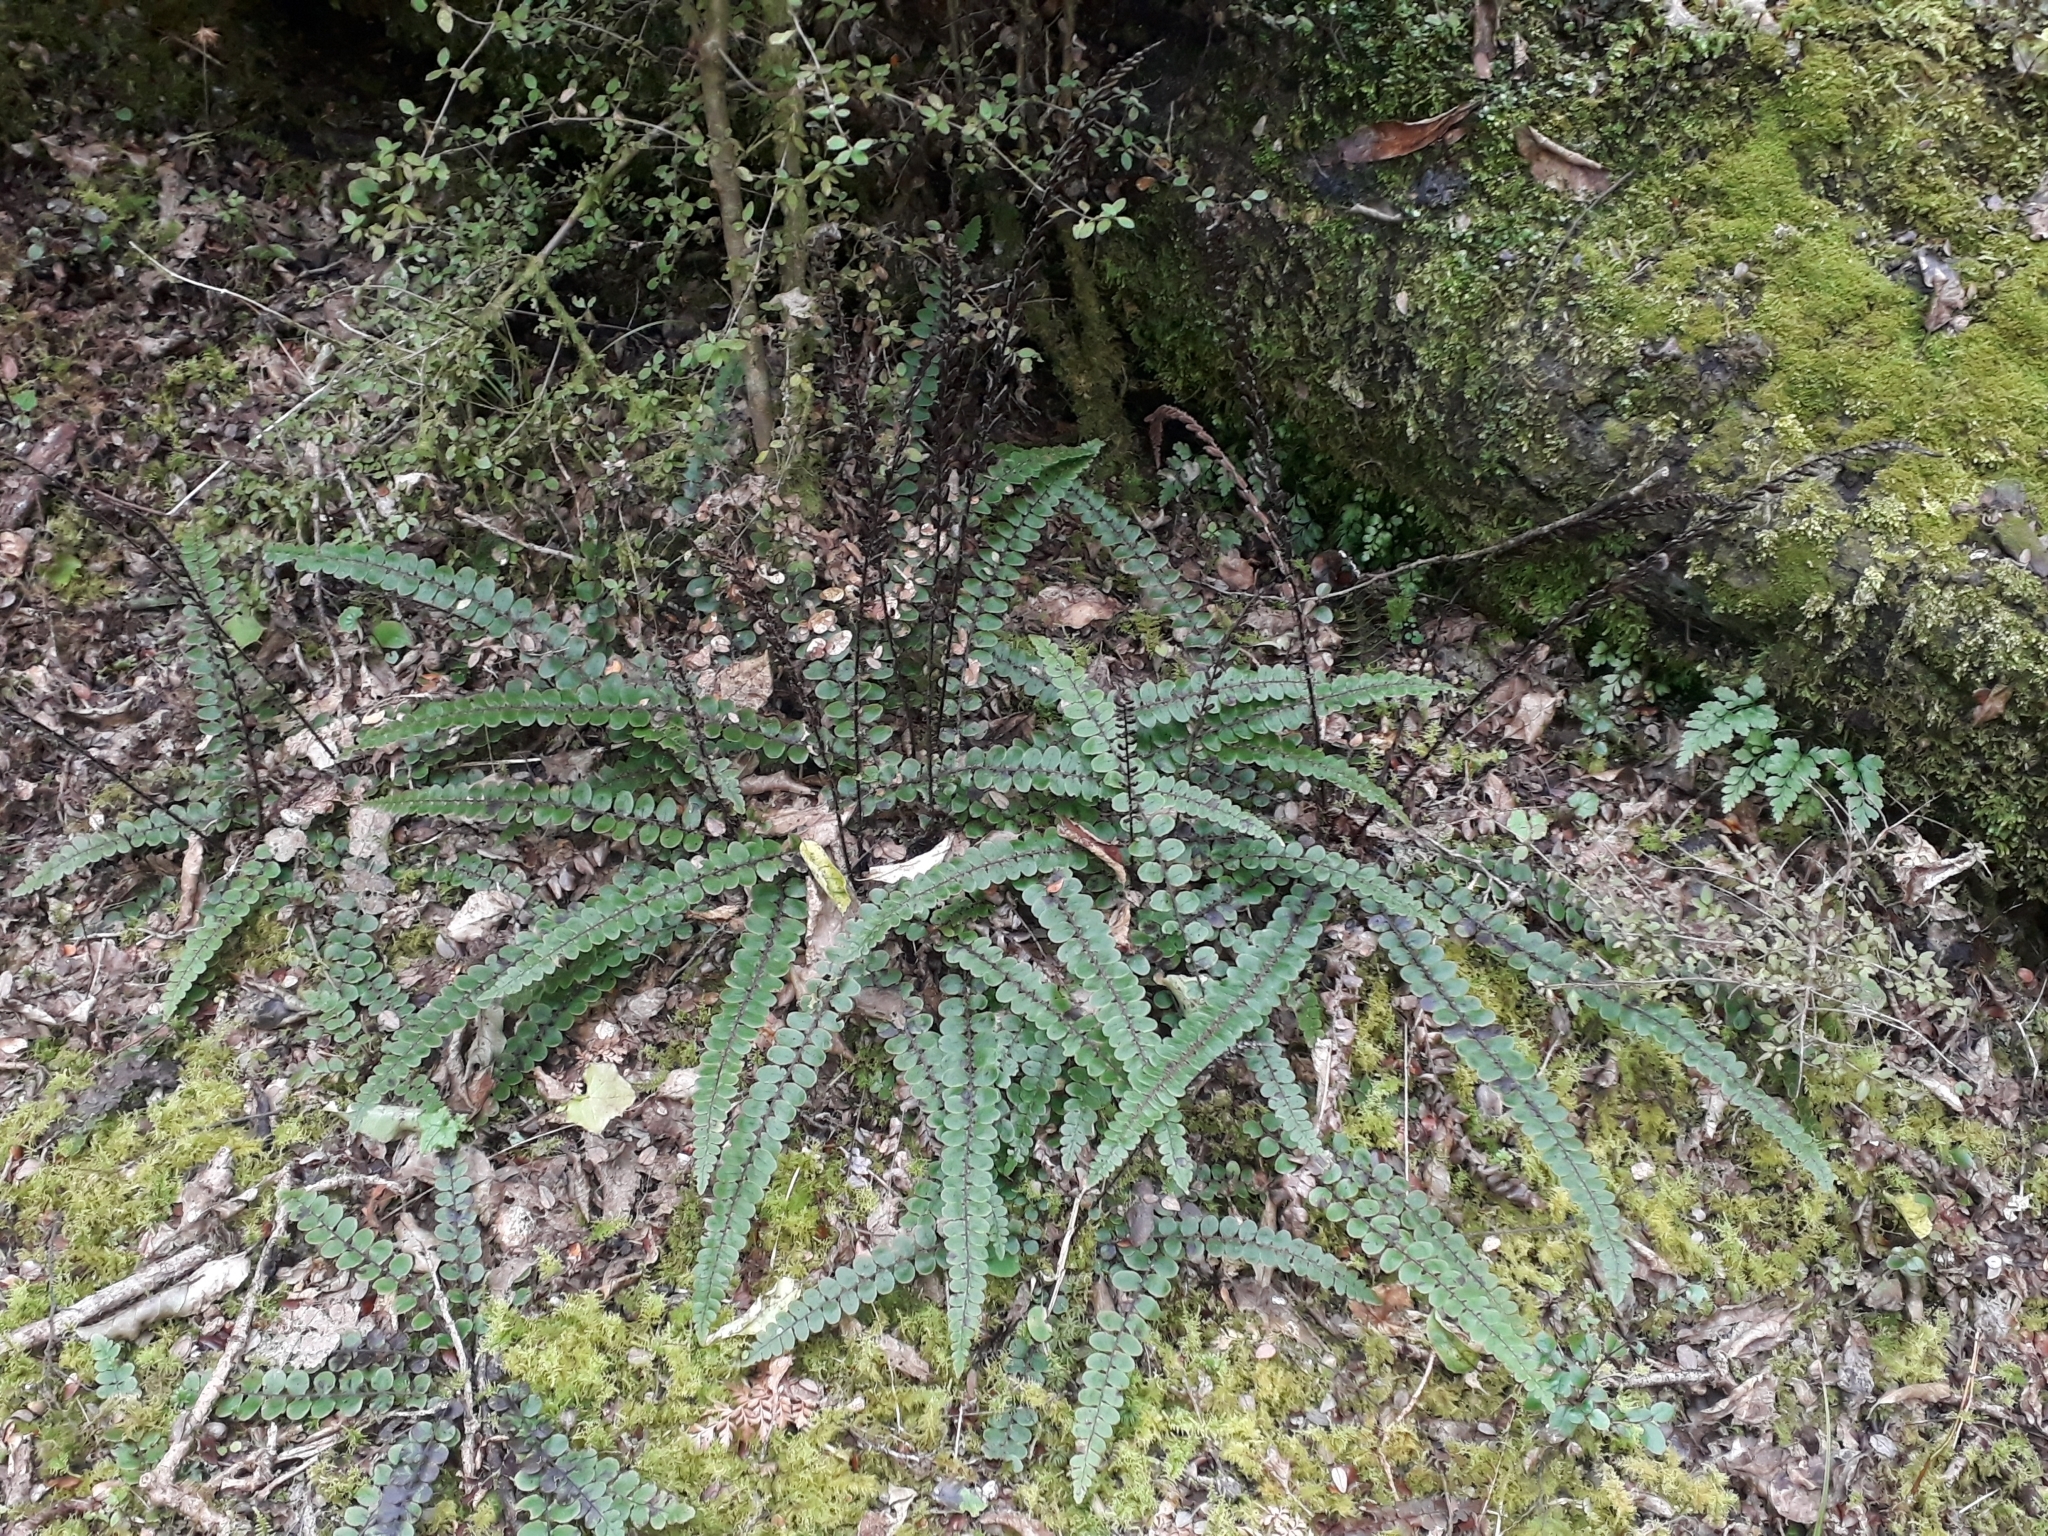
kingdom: Plantae
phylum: Tracheophyta
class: Polypodiopsida
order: Polypodiales
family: Blechnaceae
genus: Cranfillia
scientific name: Cranfillia fluviatilis
